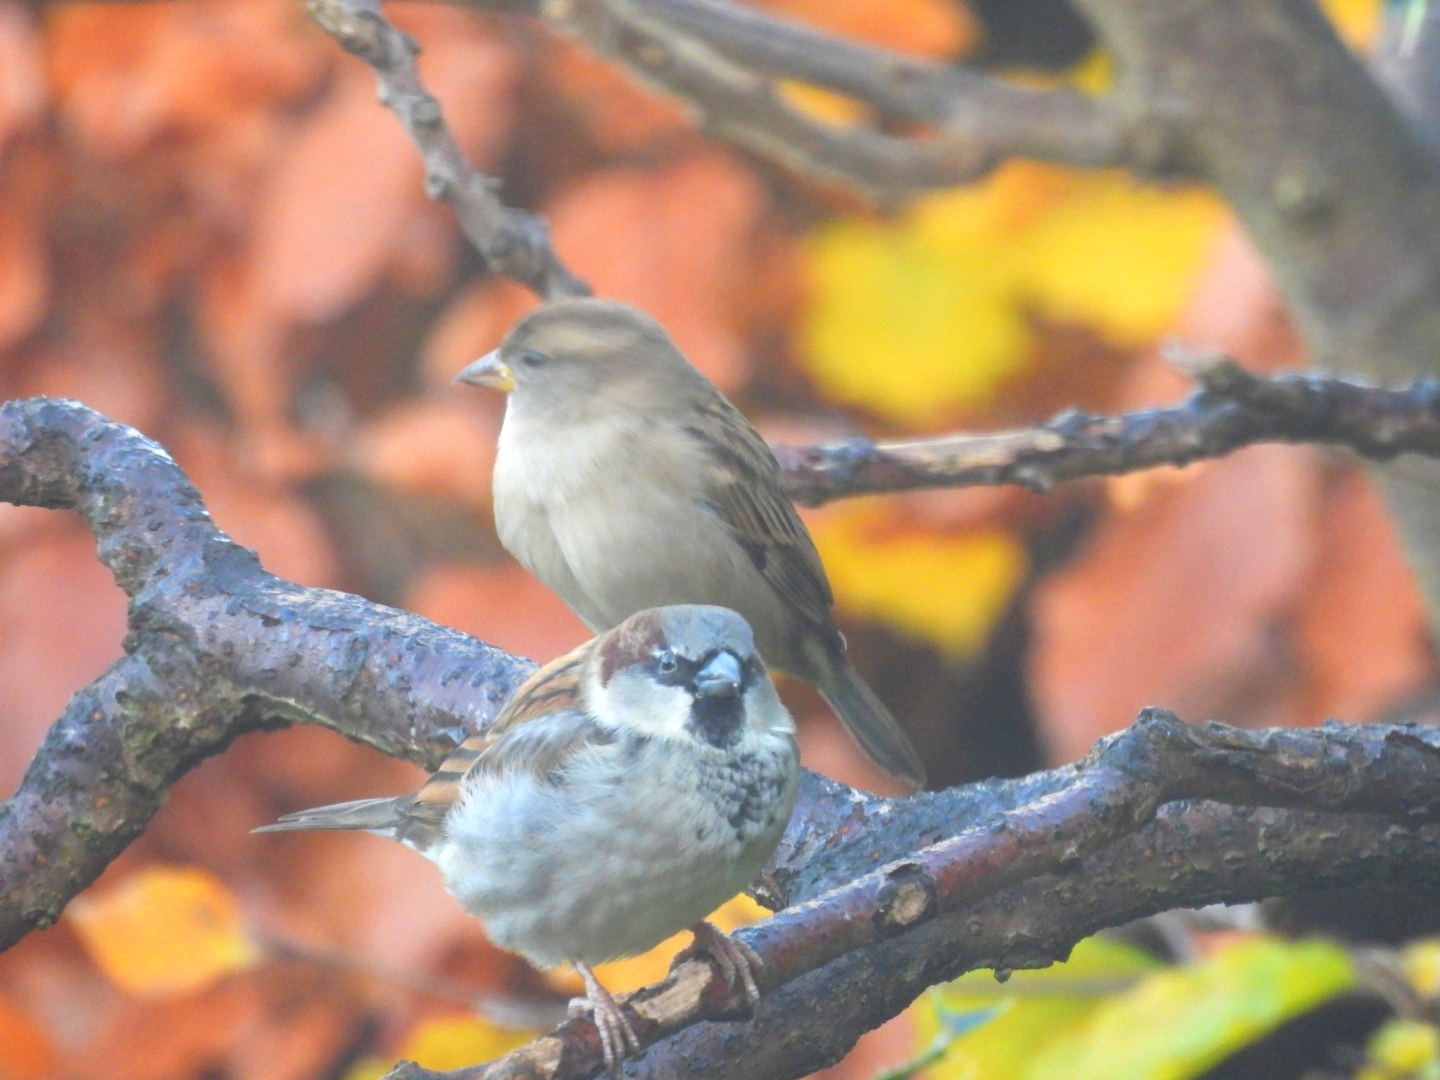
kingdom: Animalia
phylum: Chordata
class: Aves
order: Passeriformes
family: Passeridae
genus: Passer
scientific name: Passer domesticus
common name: House sparrow
